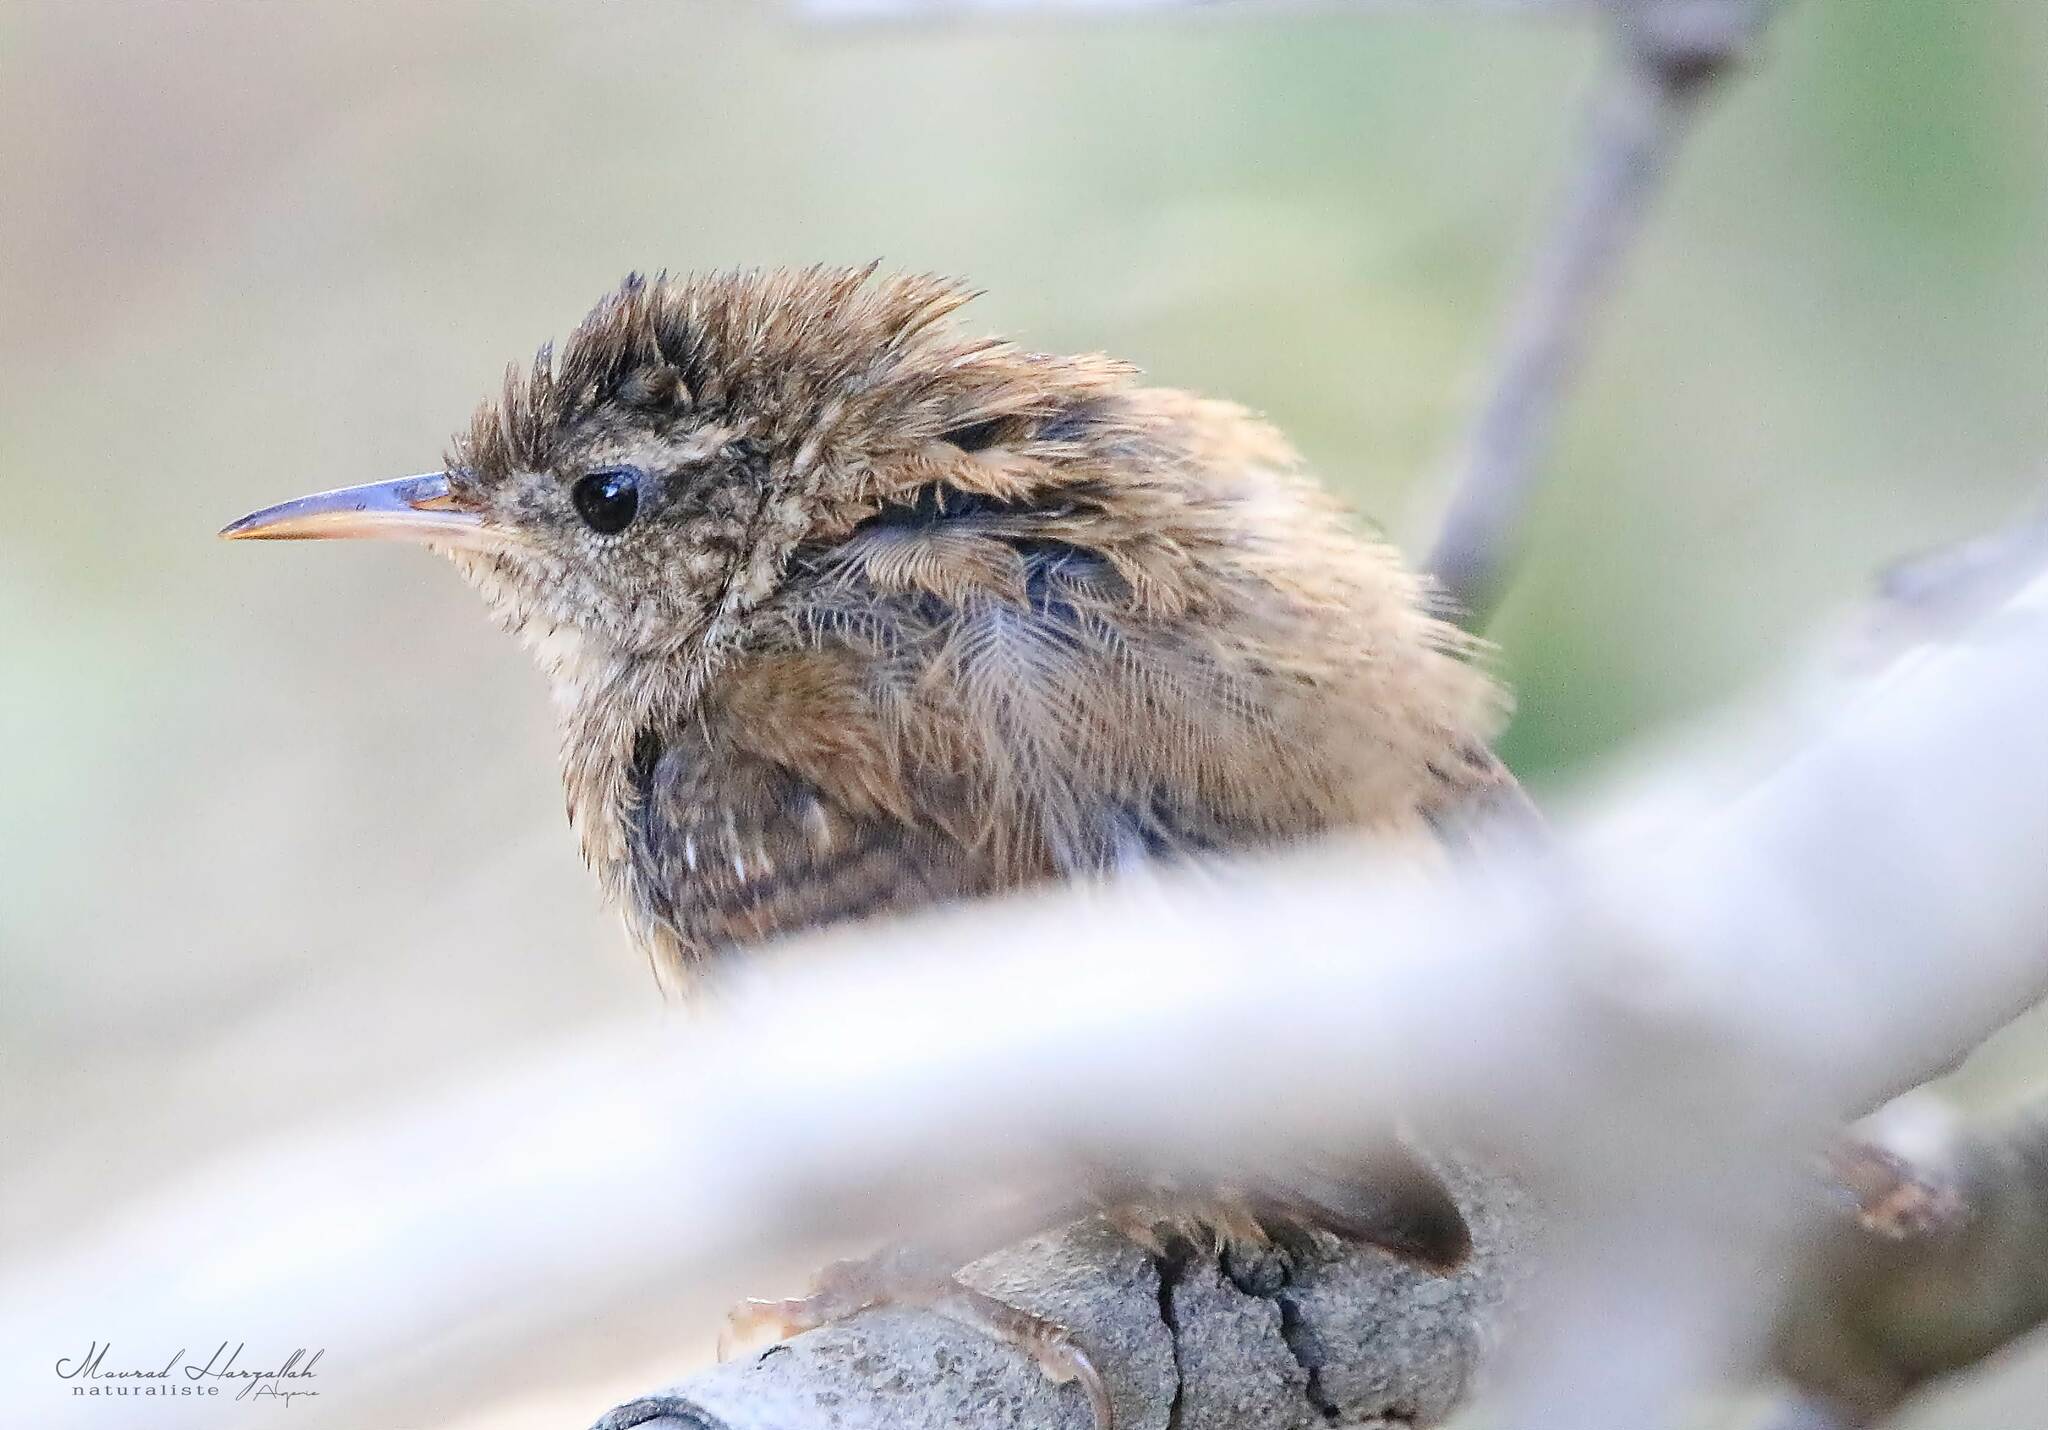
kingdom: Animalia
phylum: Chordata
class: Aves
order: Passeriformes
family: Troglodytidae
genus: Troglodytes
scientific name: Troglodytes troglodytes
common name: Eurasian wren
